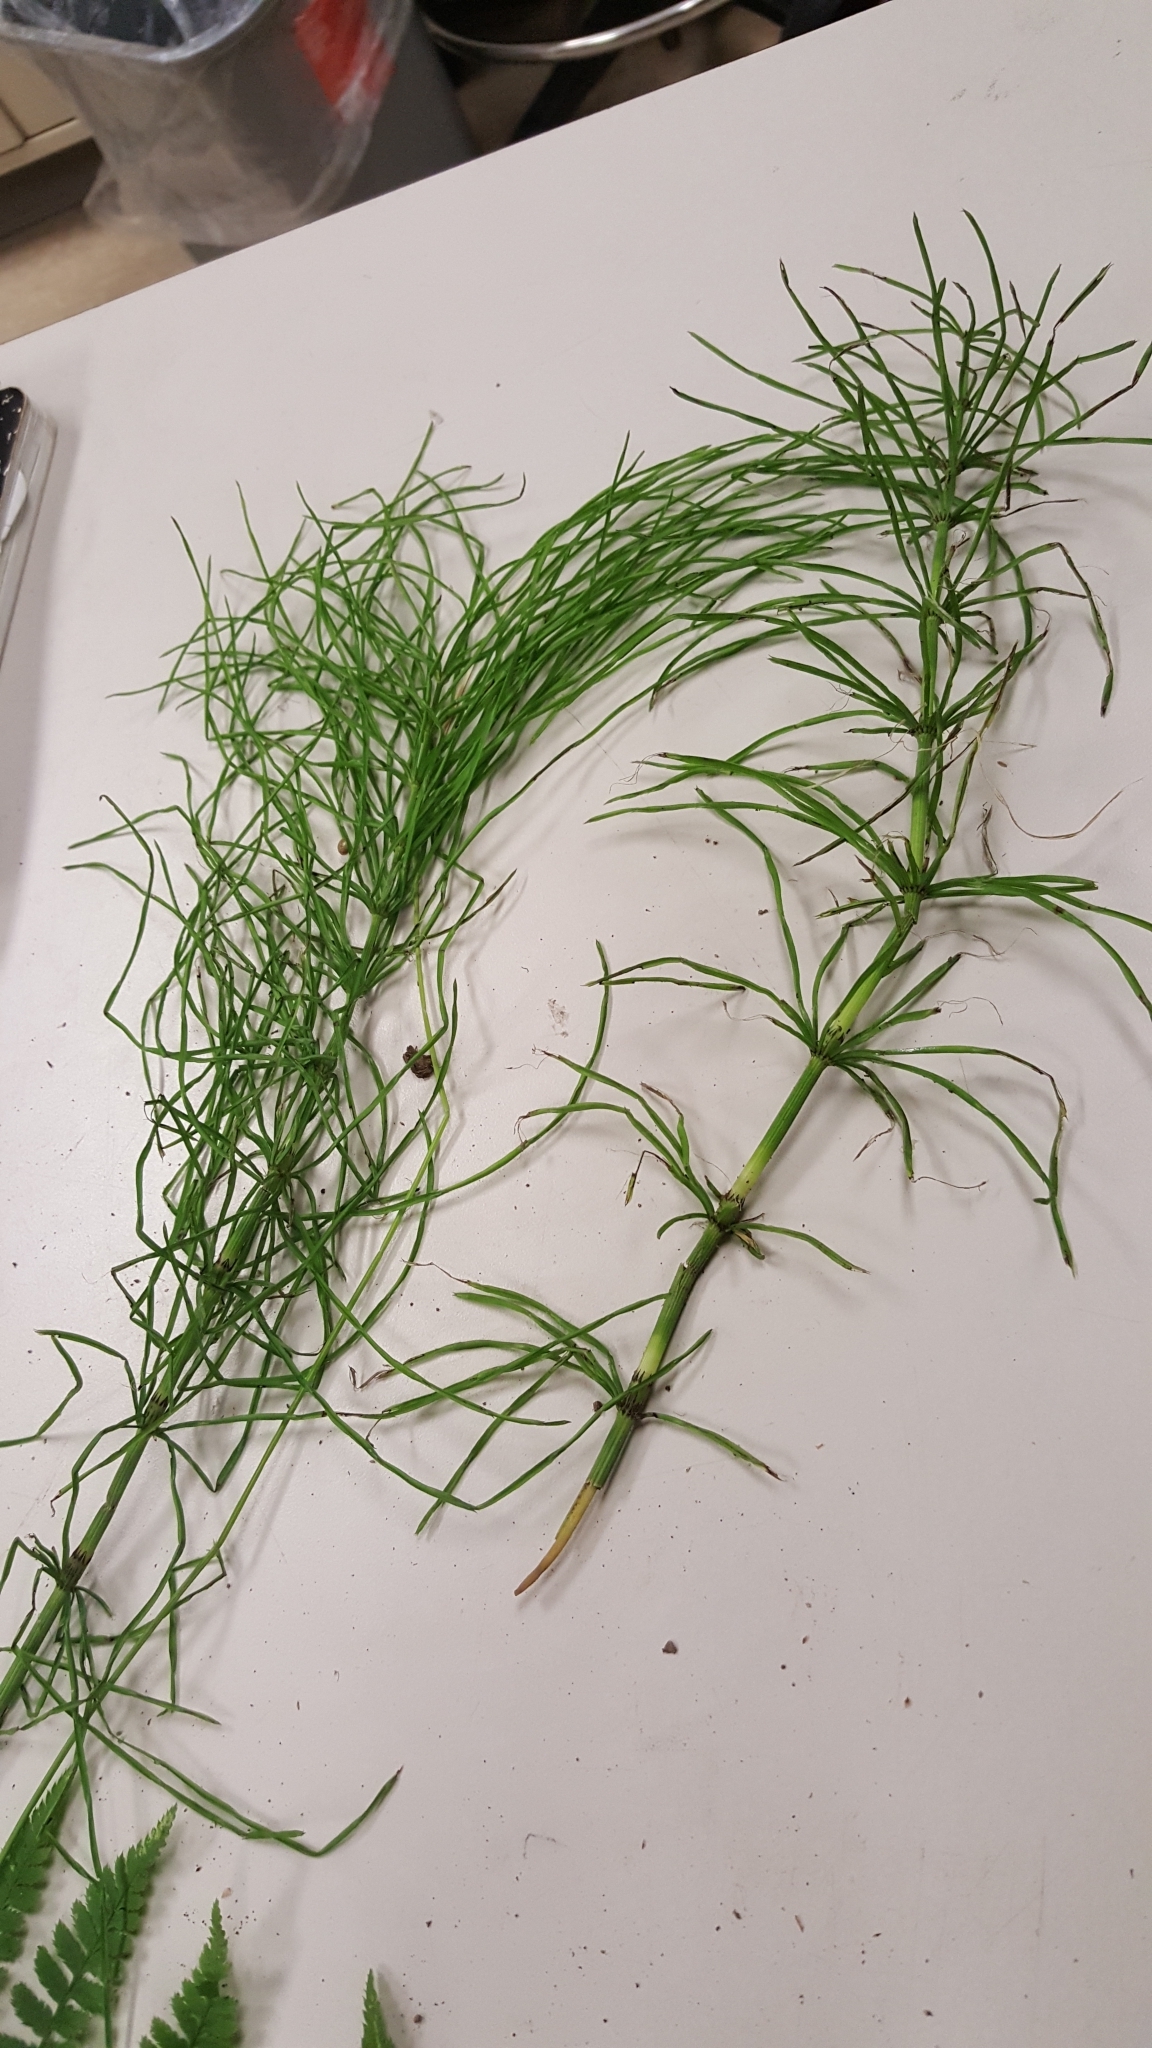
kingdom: Plantae
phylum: Tracheophyta
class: Polypodiopsida
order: Equisetales
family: Equisetaceae
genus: Equisetum
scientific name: Equisetum arvense
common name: Field horsetail
